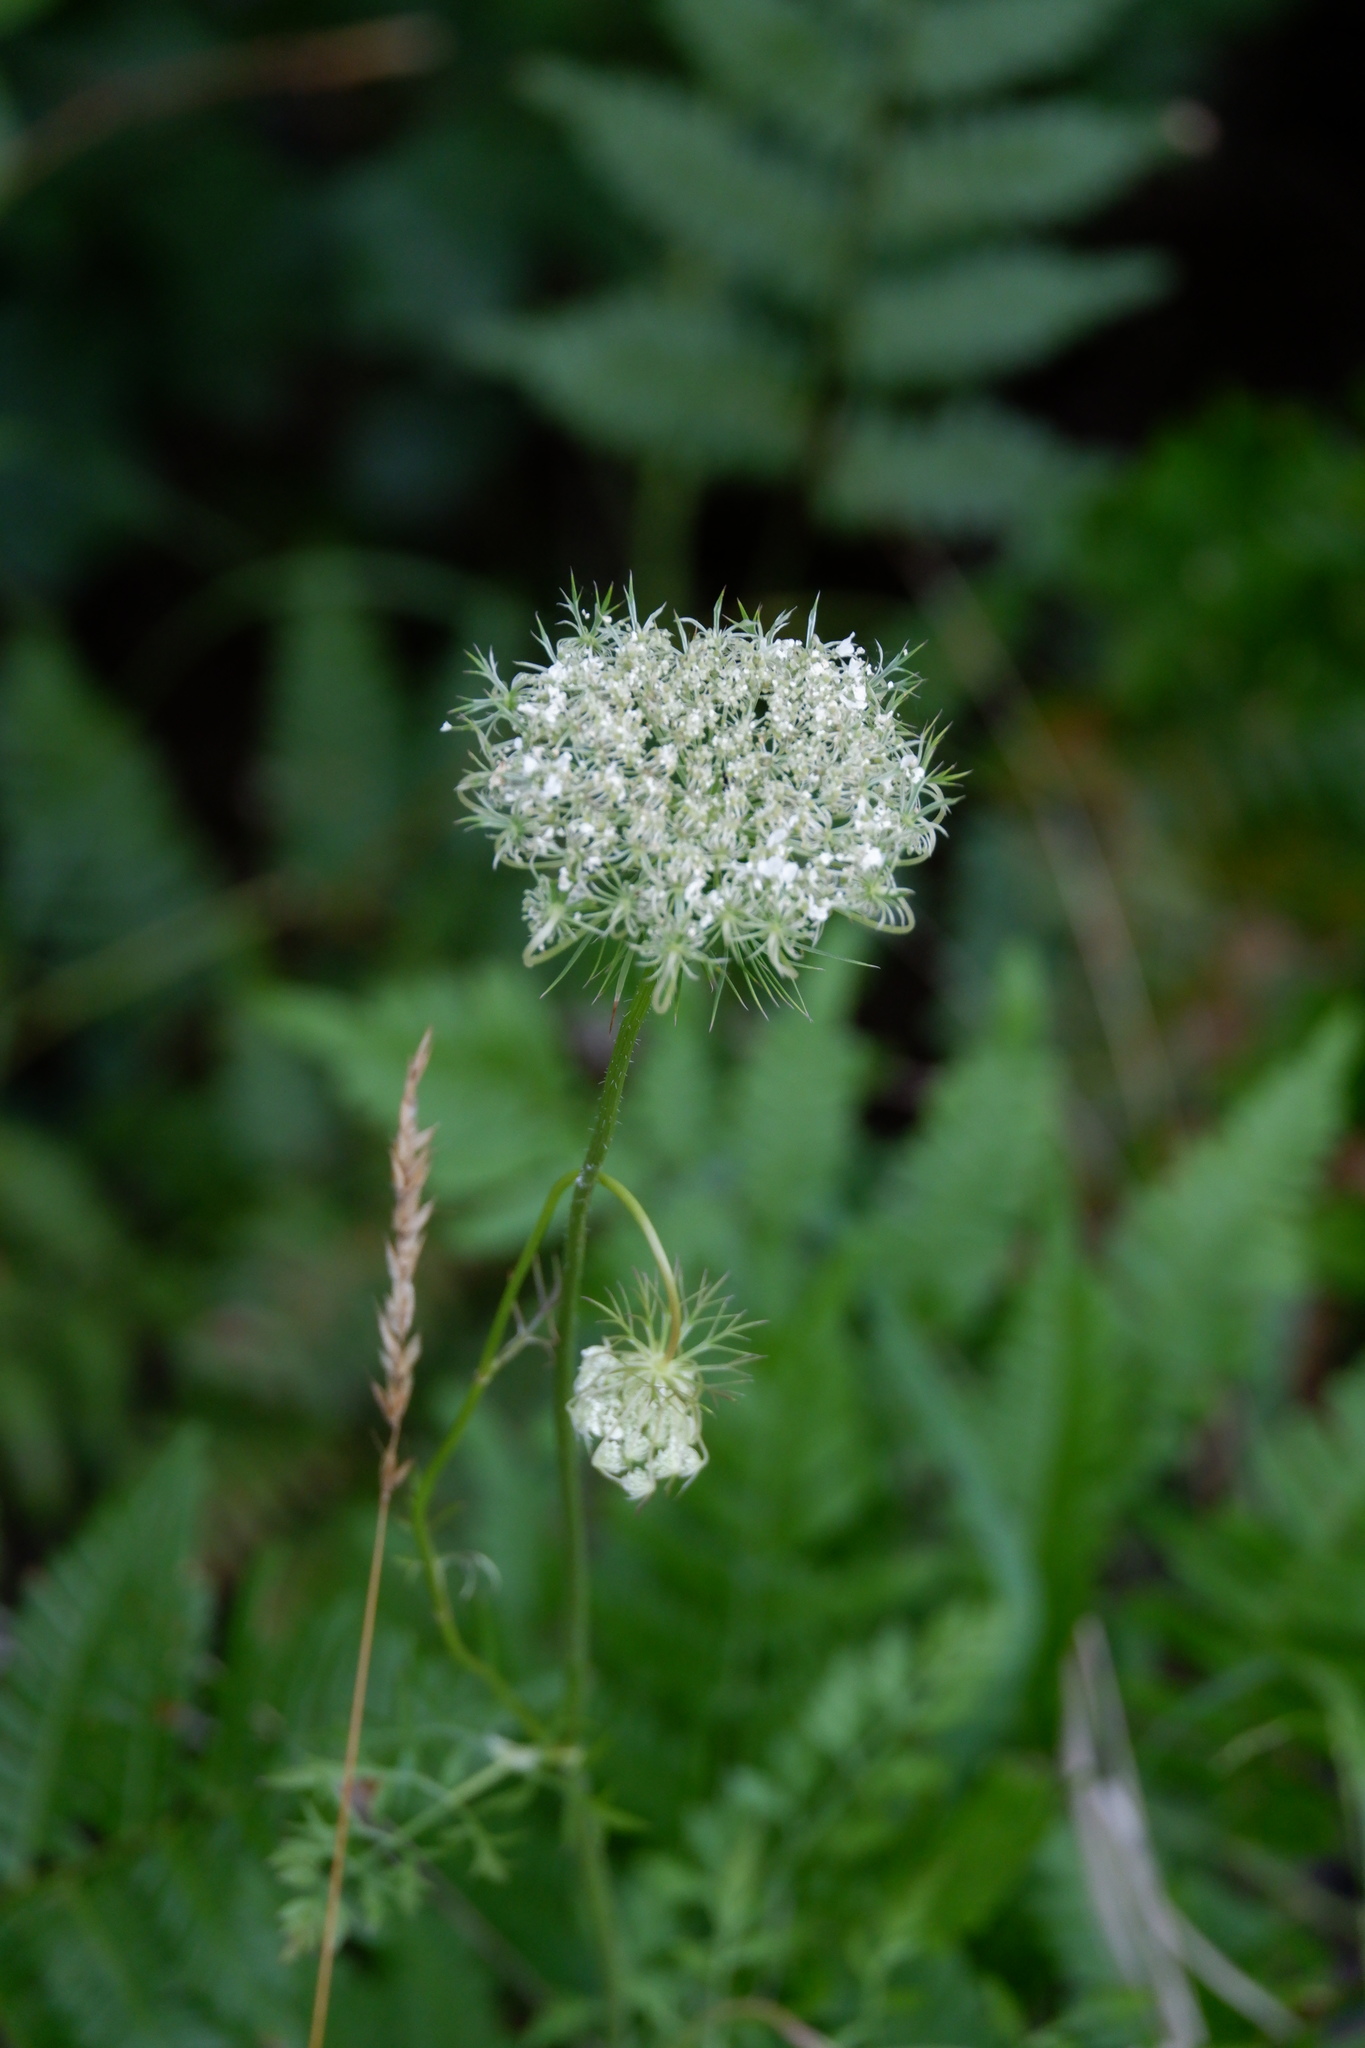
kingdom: Plantae
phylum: Tracheophyta
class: Magnoliopsida
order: Apiales
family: Apiaceae
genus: Daucus
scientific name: Daucus carota
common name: Wild carrot
